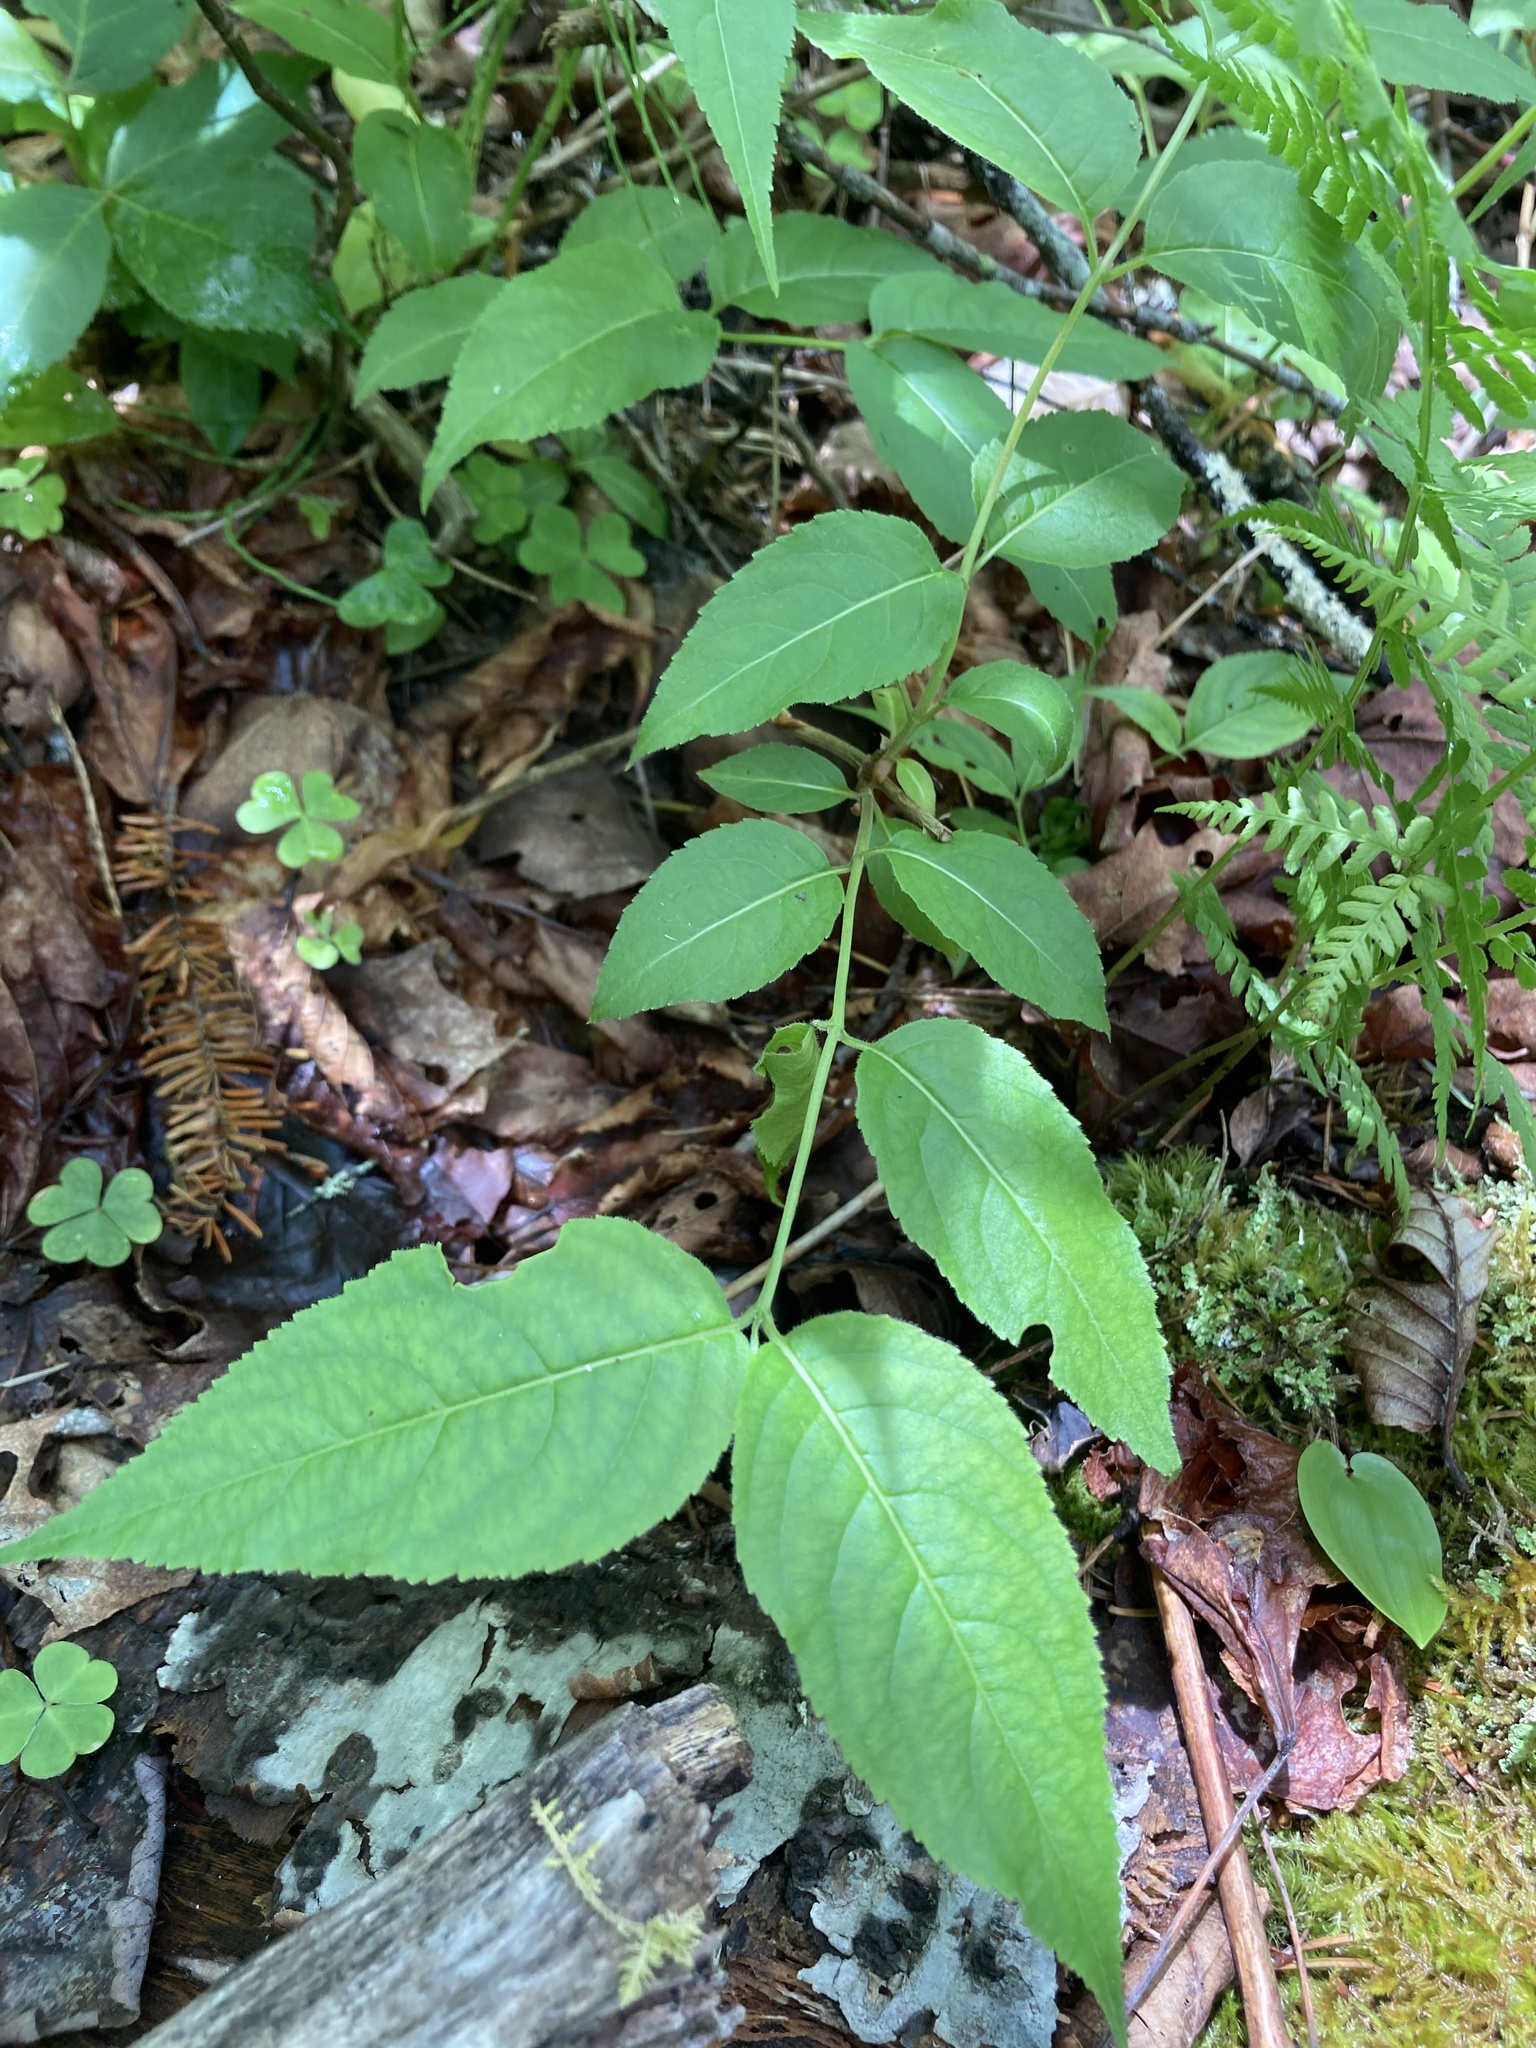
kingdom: Plantae
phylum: Tracheophyta
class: Magnoliopsida
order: Dipsacales
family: Caprifoliaceae
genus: Diervilla
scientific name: Diervilla lonicera
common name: Bush-honeysuckle
